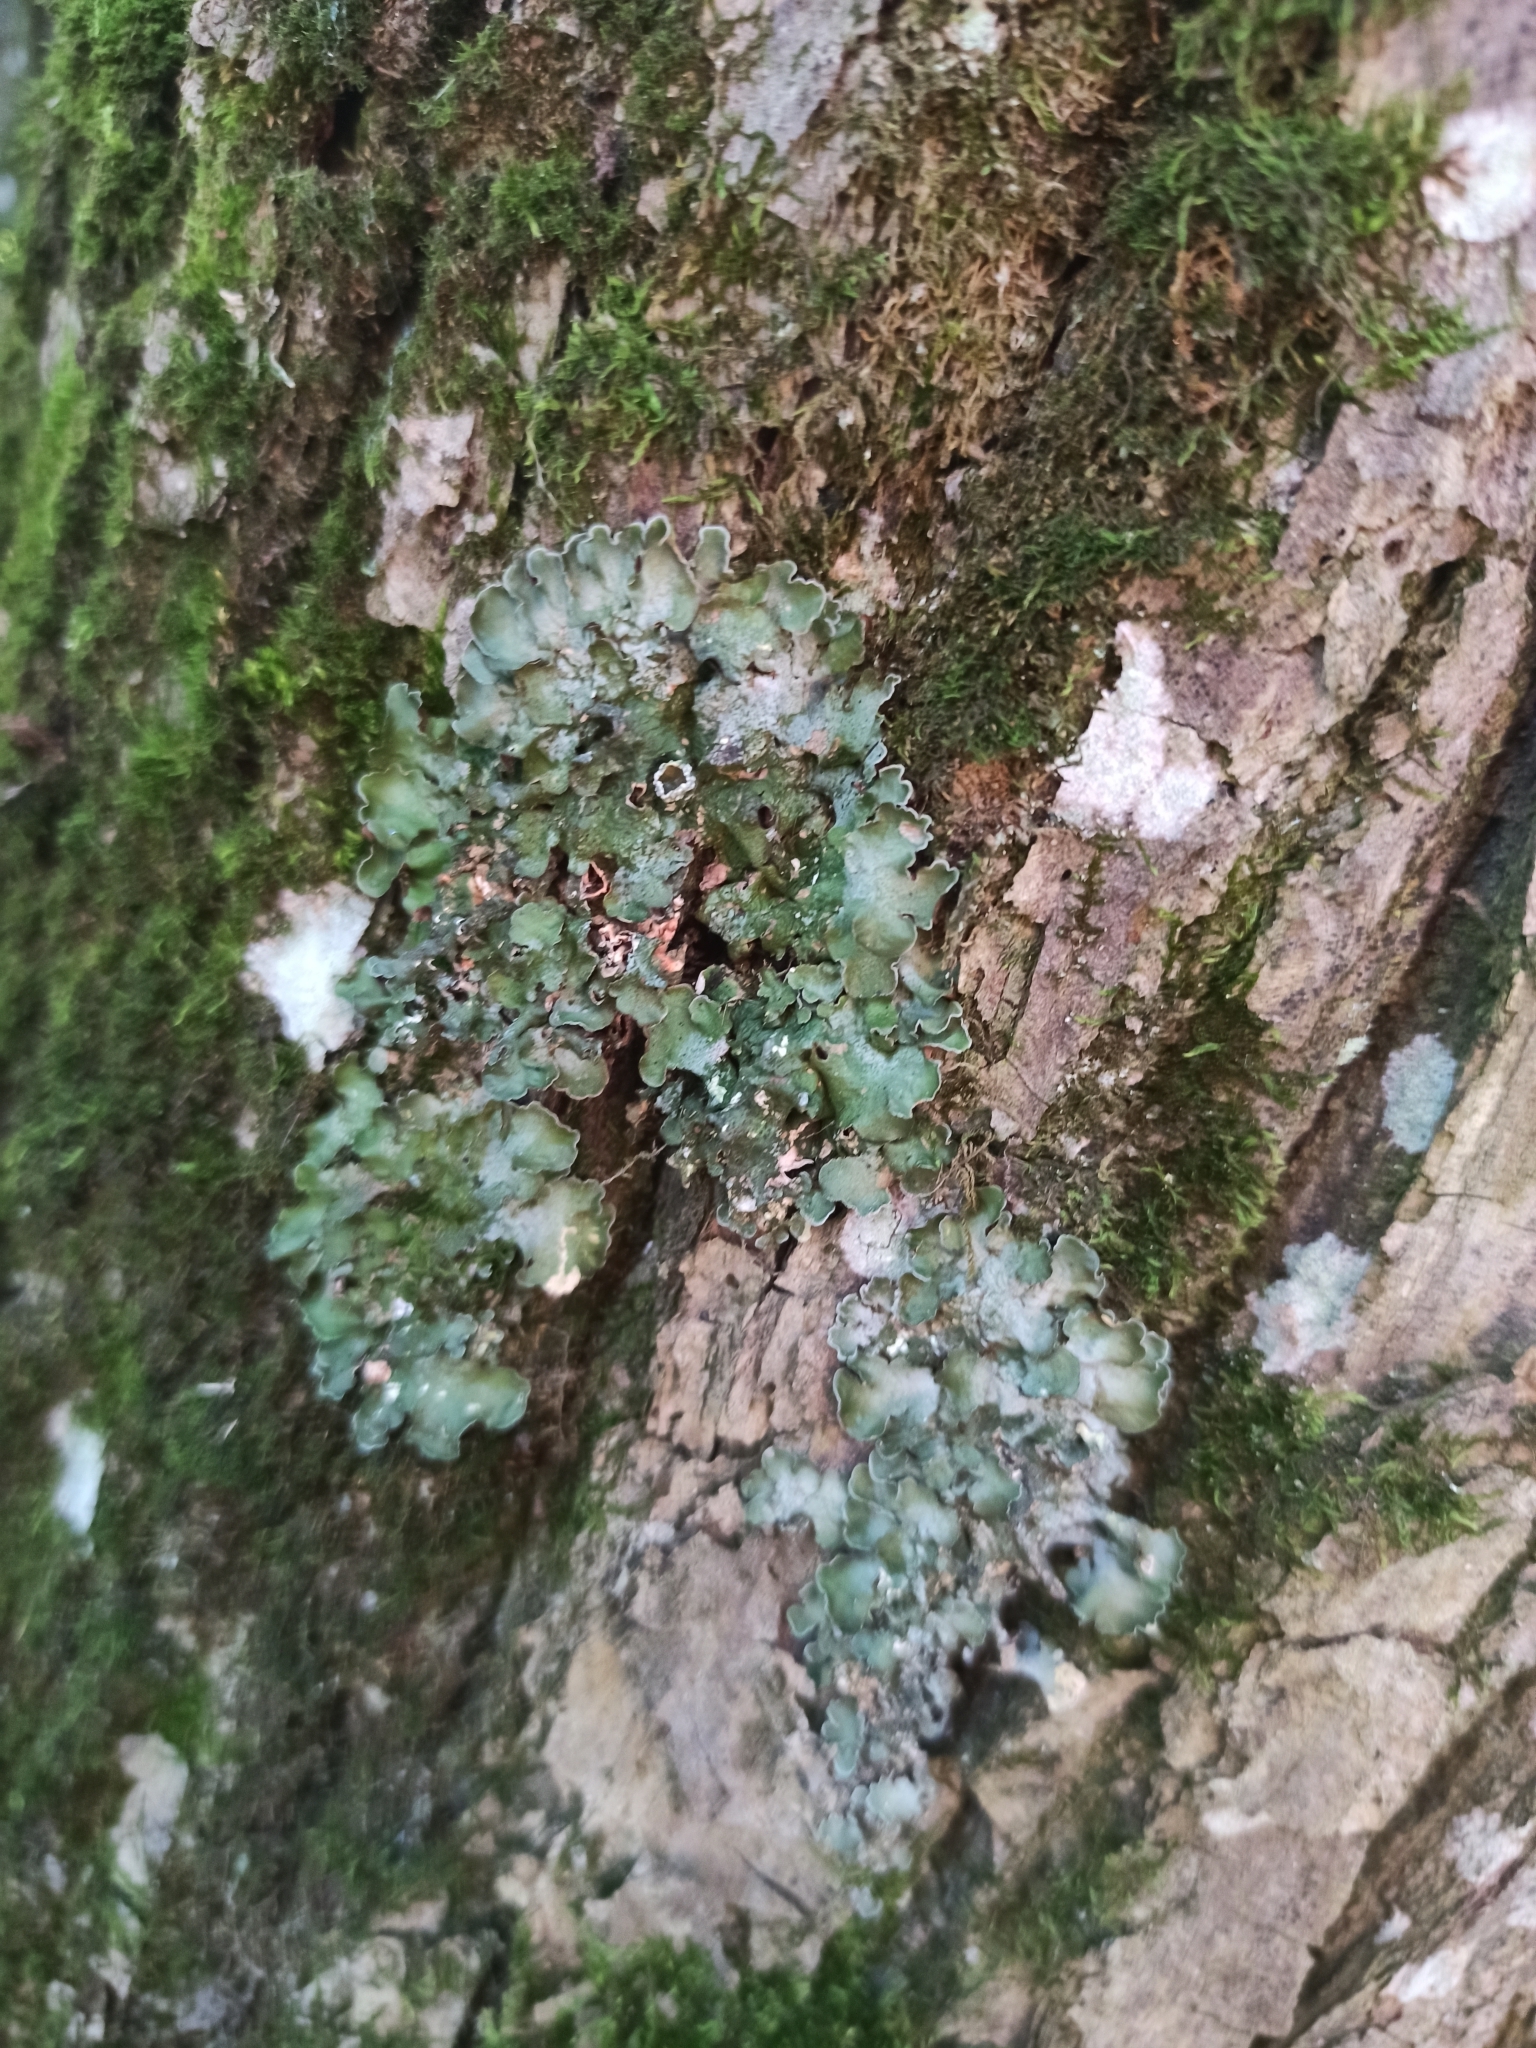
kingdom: Fungi
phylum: Ascomycota
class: Lecanoromycetes
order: Lecanorales
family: Parmeliaceae
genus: Pleurosticta
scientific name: Pleurosticta acetabulum
